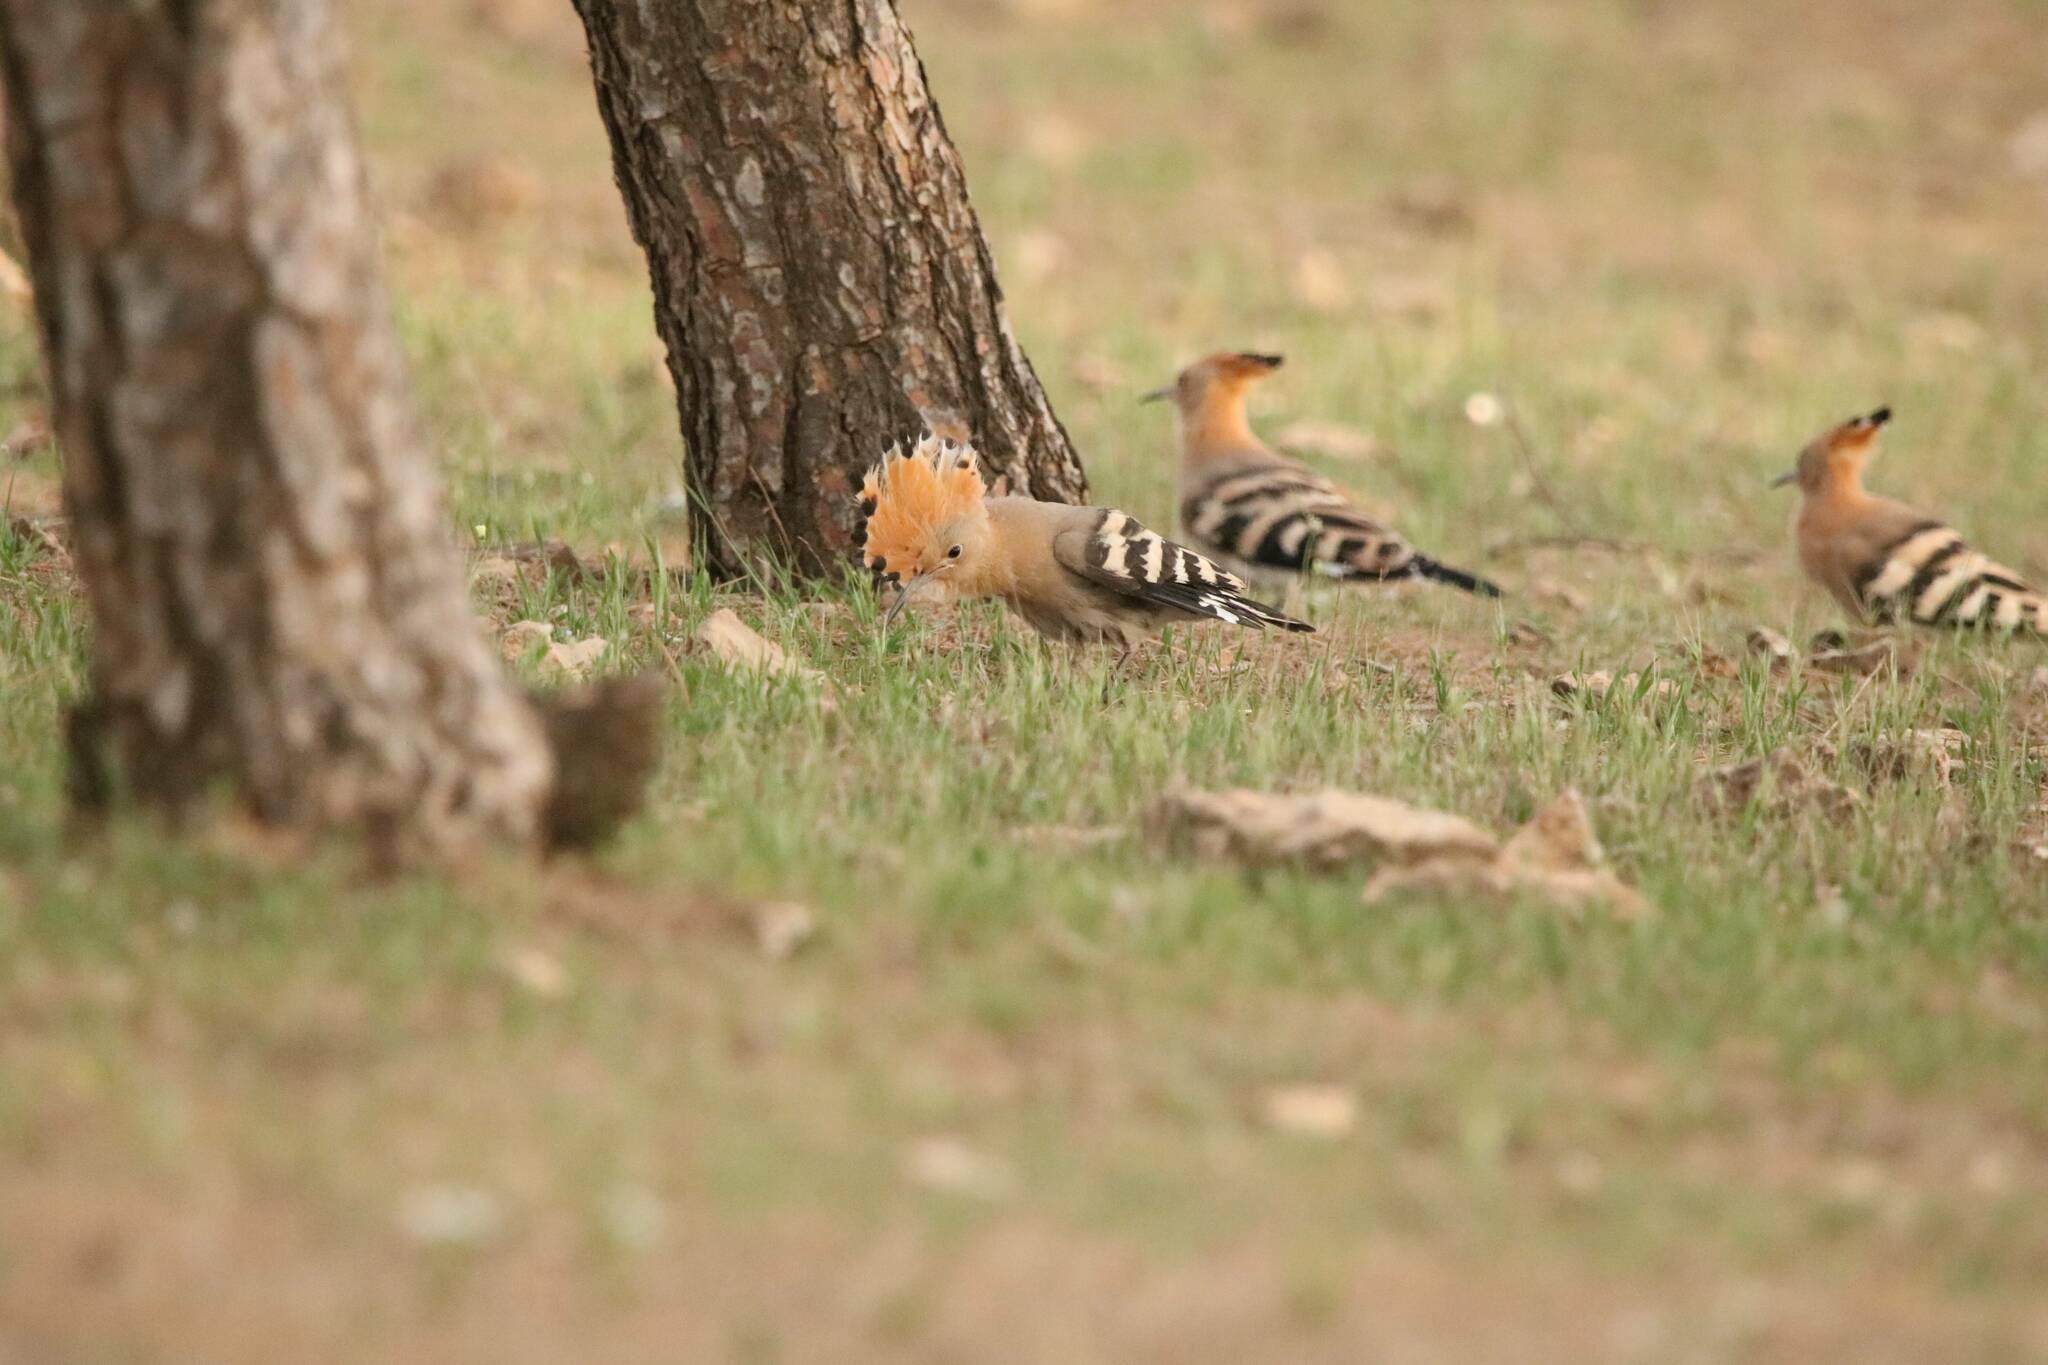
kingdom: Animalia
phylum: Chordata
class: Aves
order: Bucerotiformes
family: Upupidae
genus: Upupa
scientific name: Upupa epops
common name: Eurasian hoopoe
